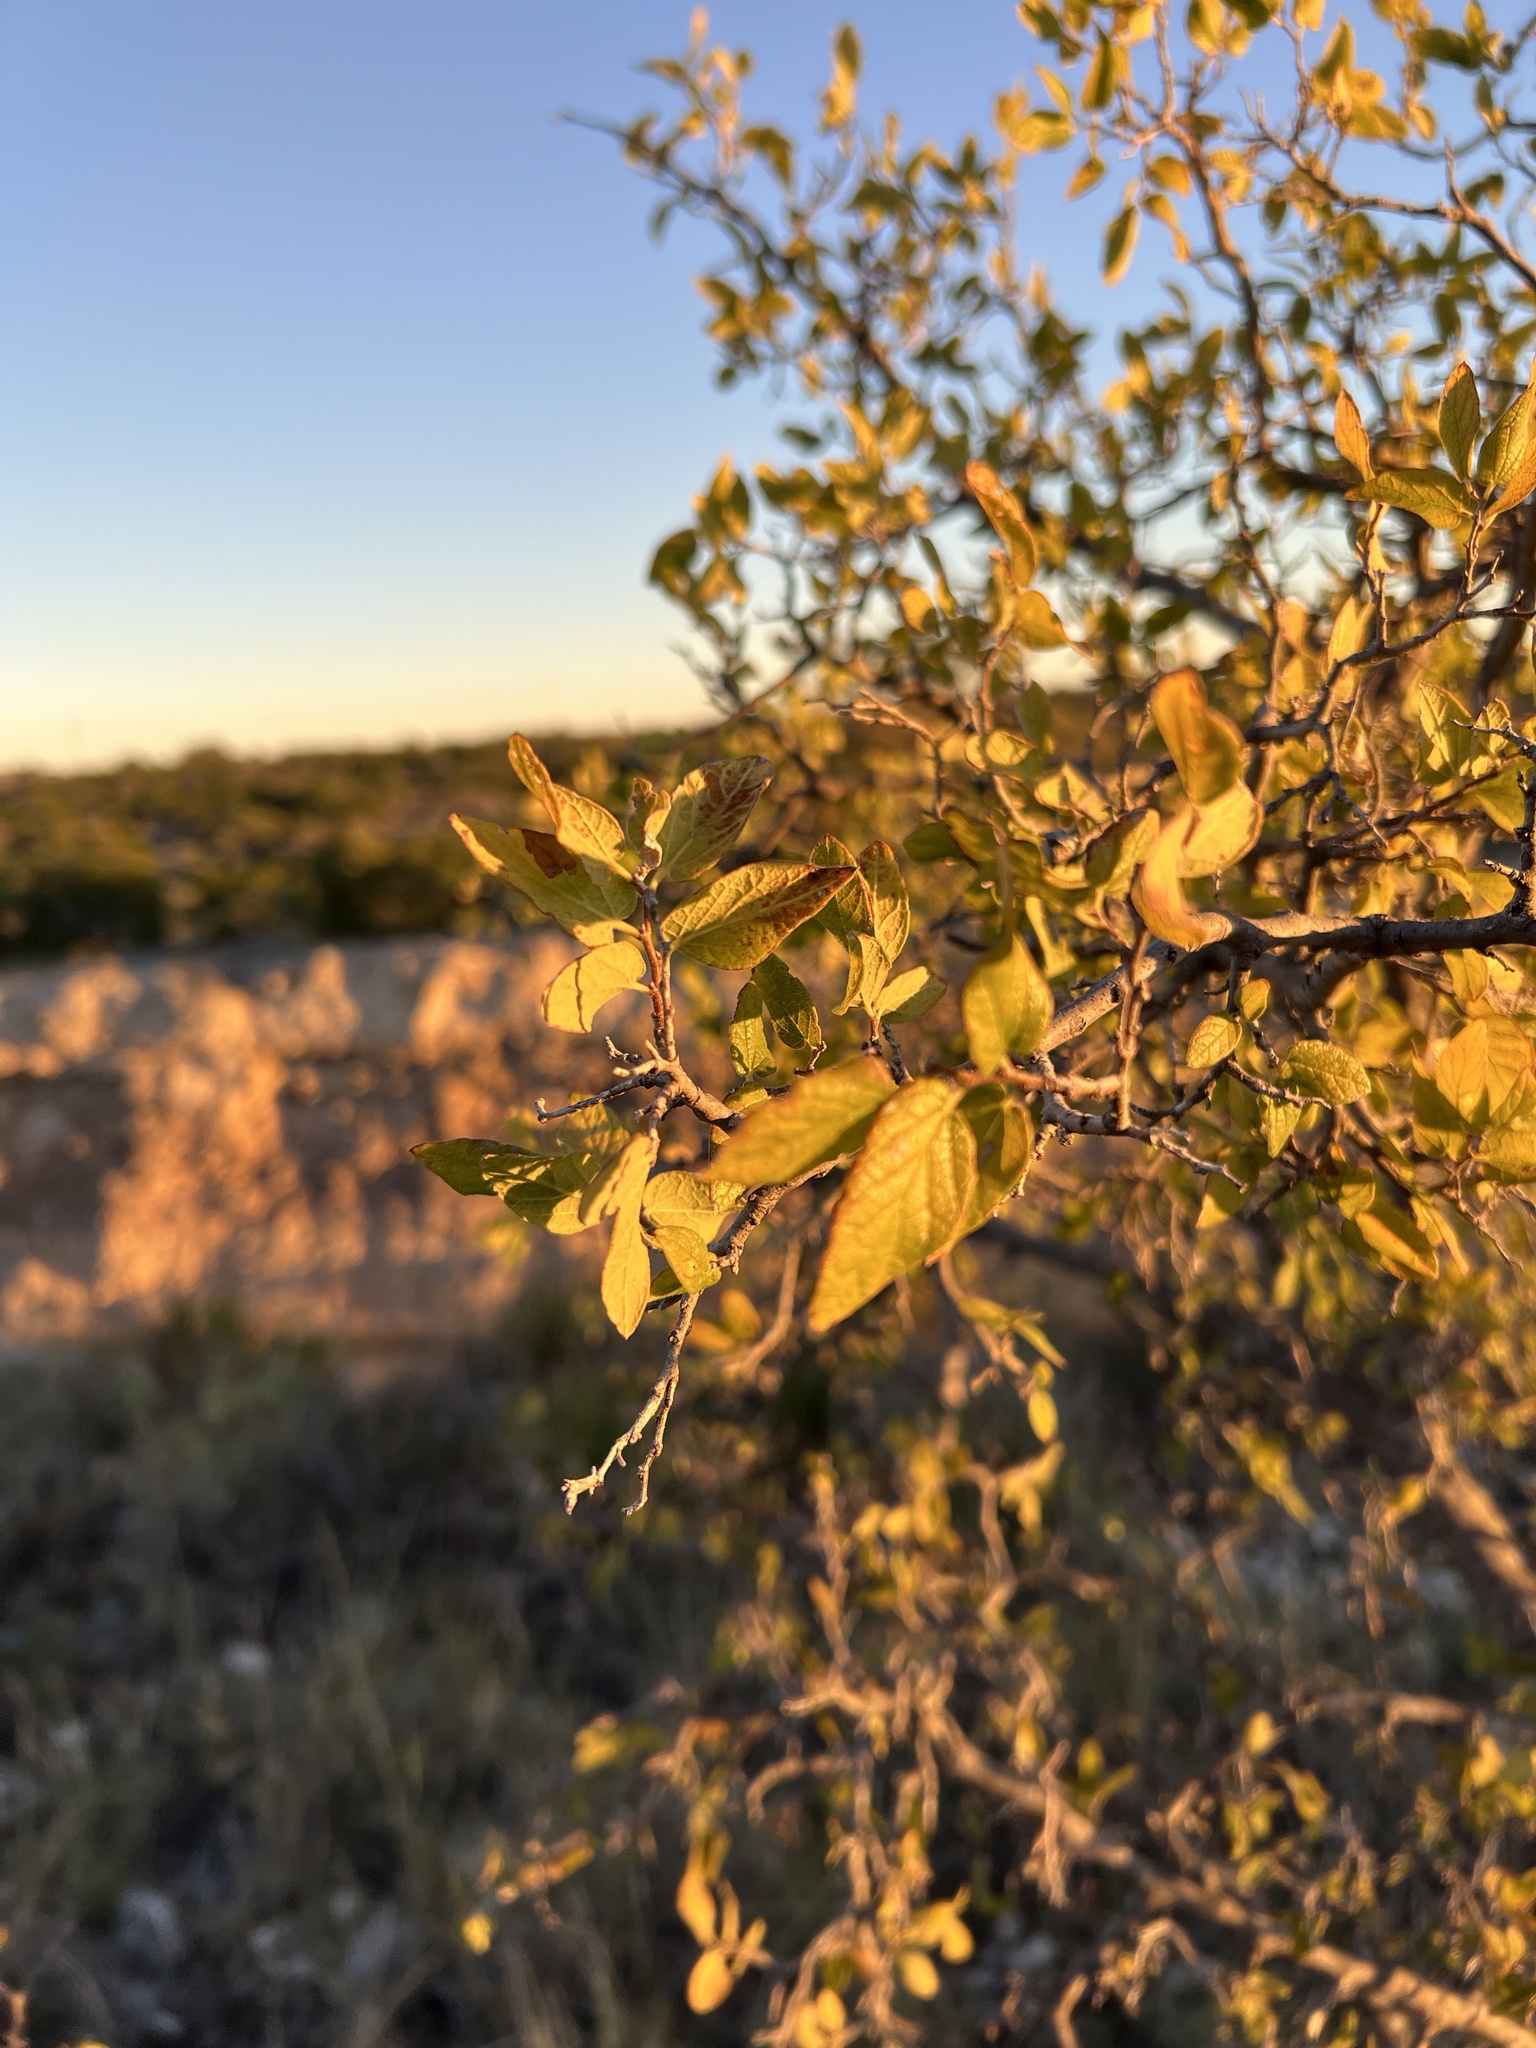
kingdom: Plantae
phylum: Tracheophyta
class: Magnoliopsida
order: Rosales
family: Cannabaceae
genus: Celtis
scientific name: Celtis reticulata
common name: Netleaf hackberry
